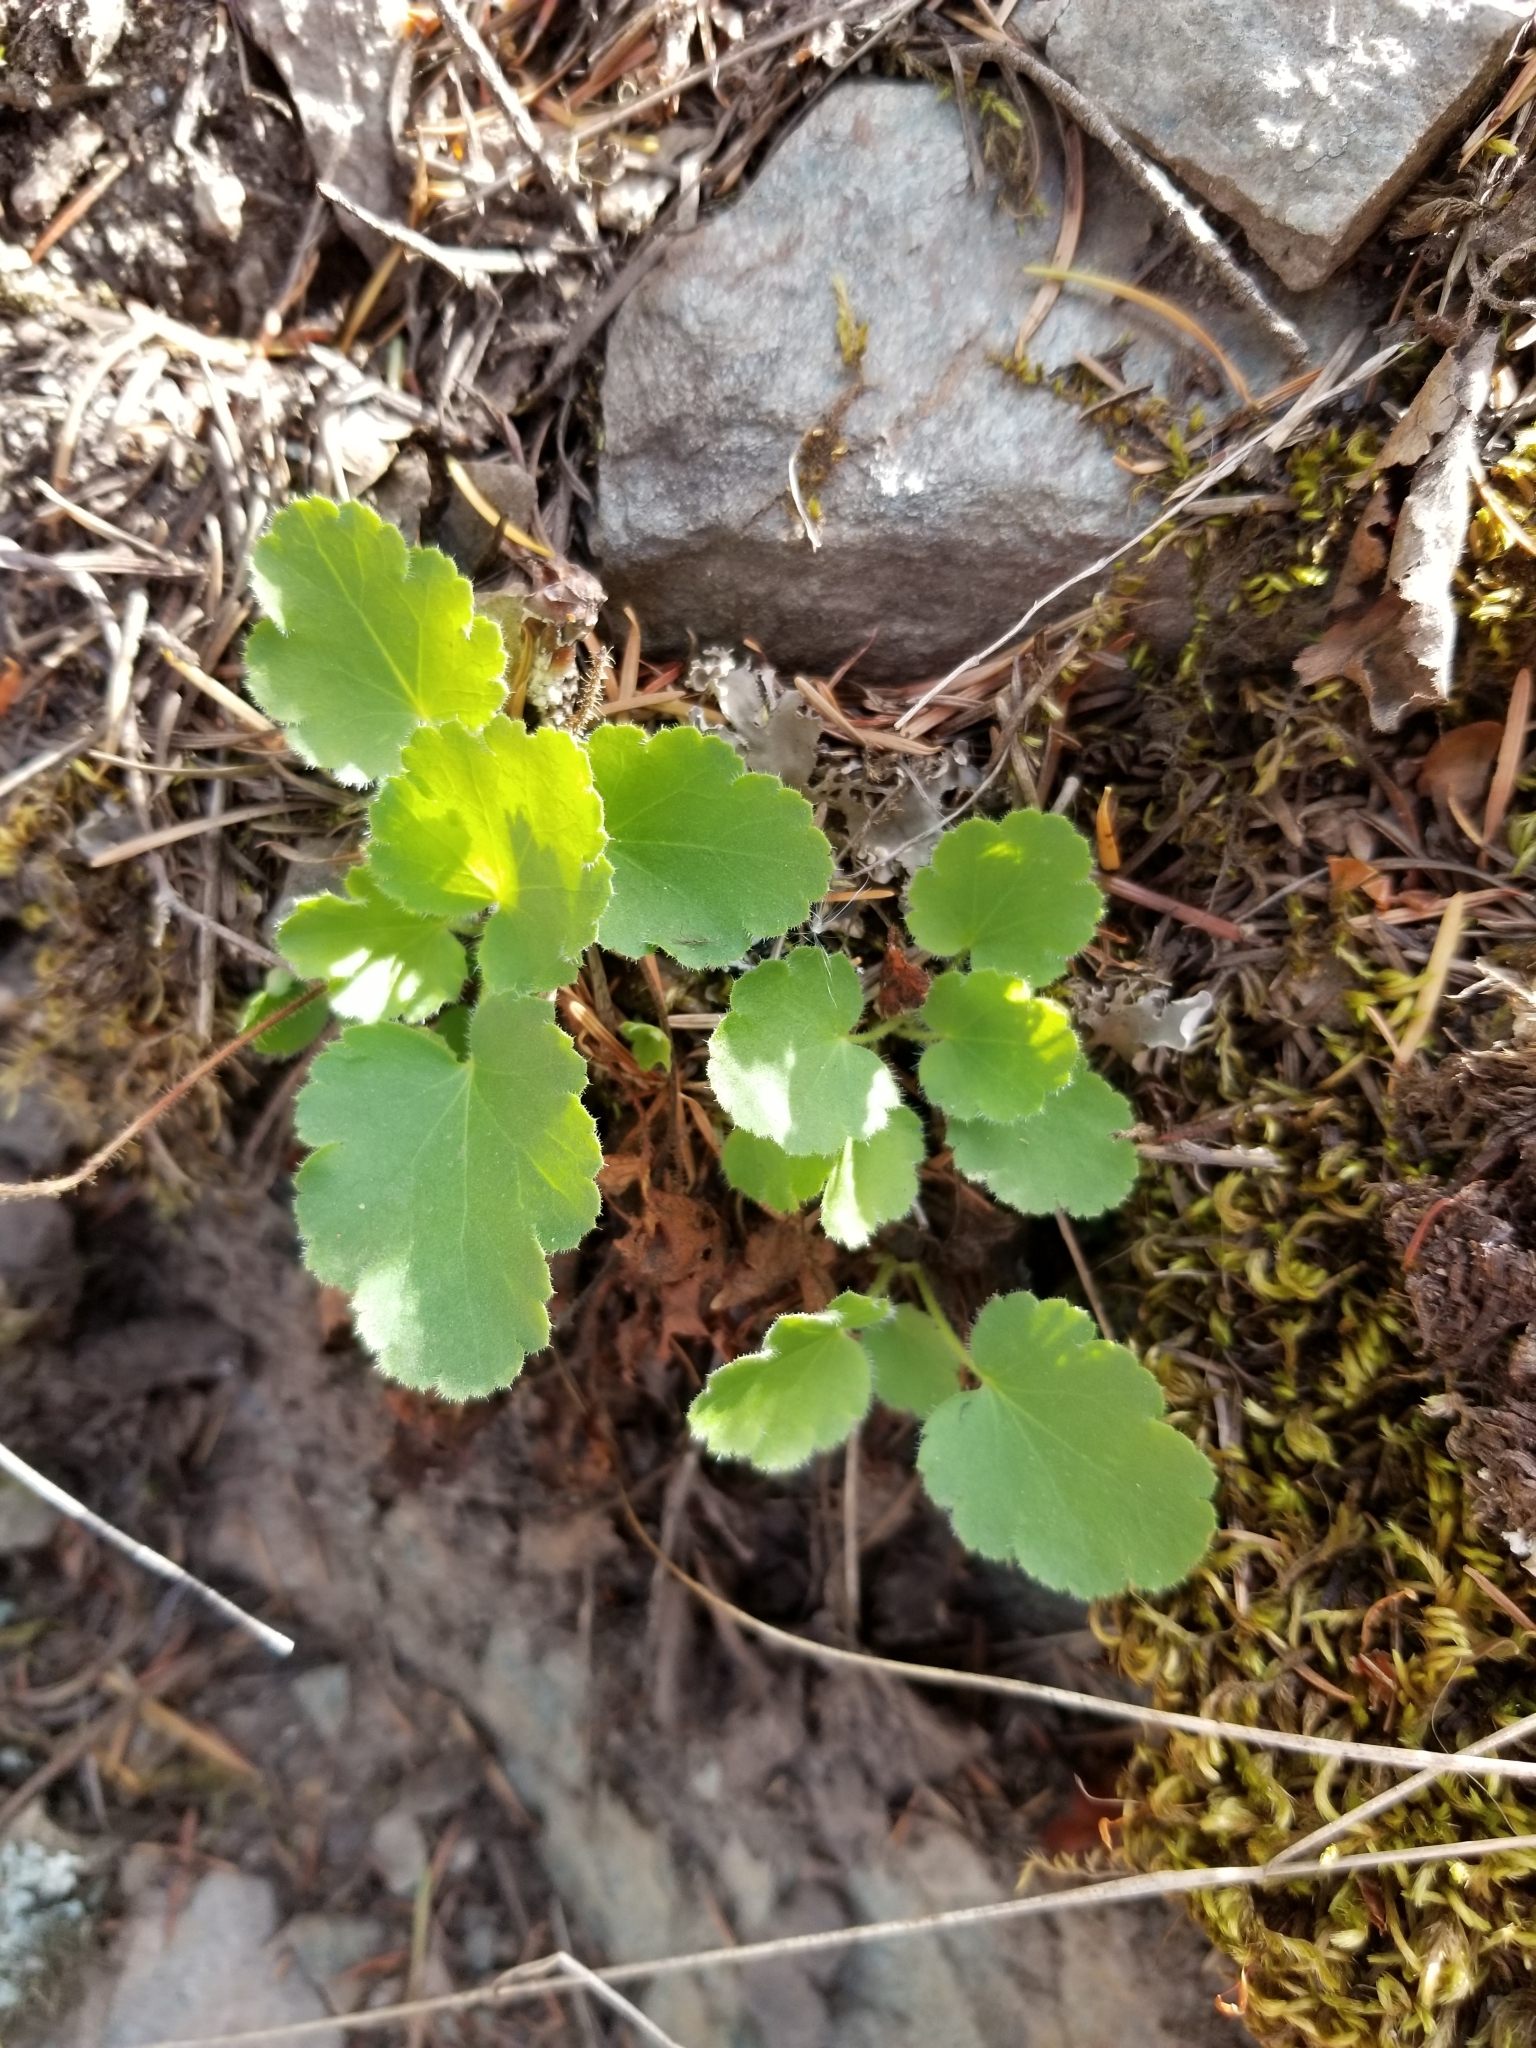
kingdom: Plantae
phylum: Tracheophyta
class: Magnoliopsida
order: Saxifragales
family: Saxifragaceae
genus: Heuchera
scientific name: Heuchera cylindrica
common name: Mat alumroot
